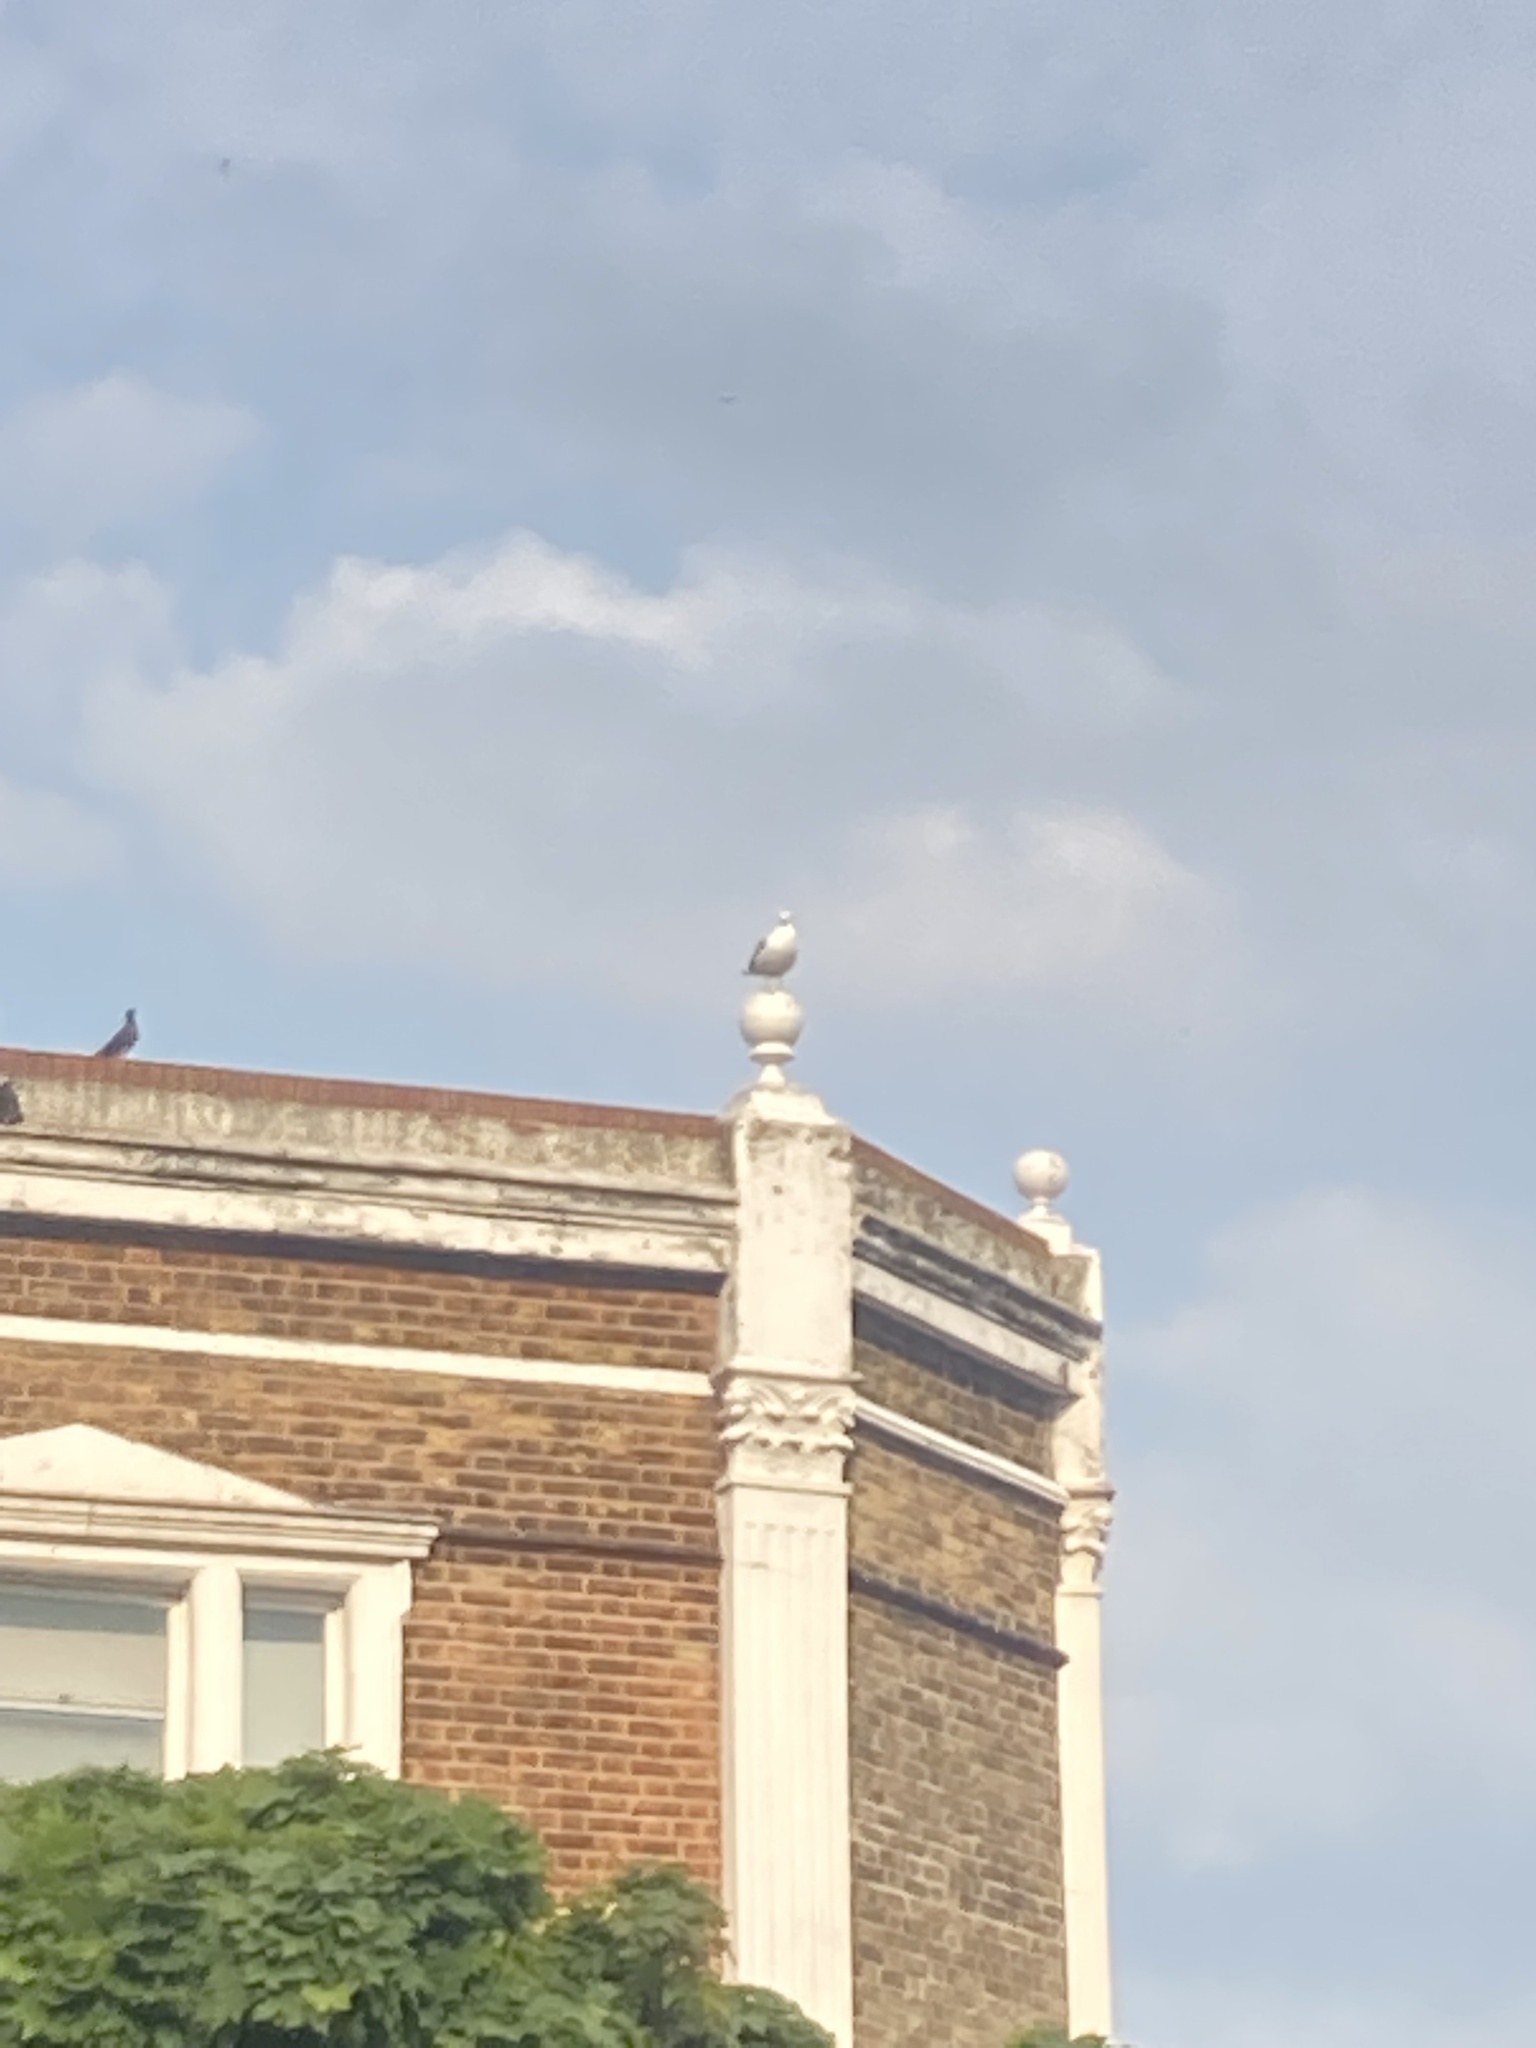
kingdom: Animalia
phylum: Chordata
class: Aves
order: Charadriiformes
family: Laridae
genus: Larus
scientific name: Larus argentatus
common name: Herring gull
